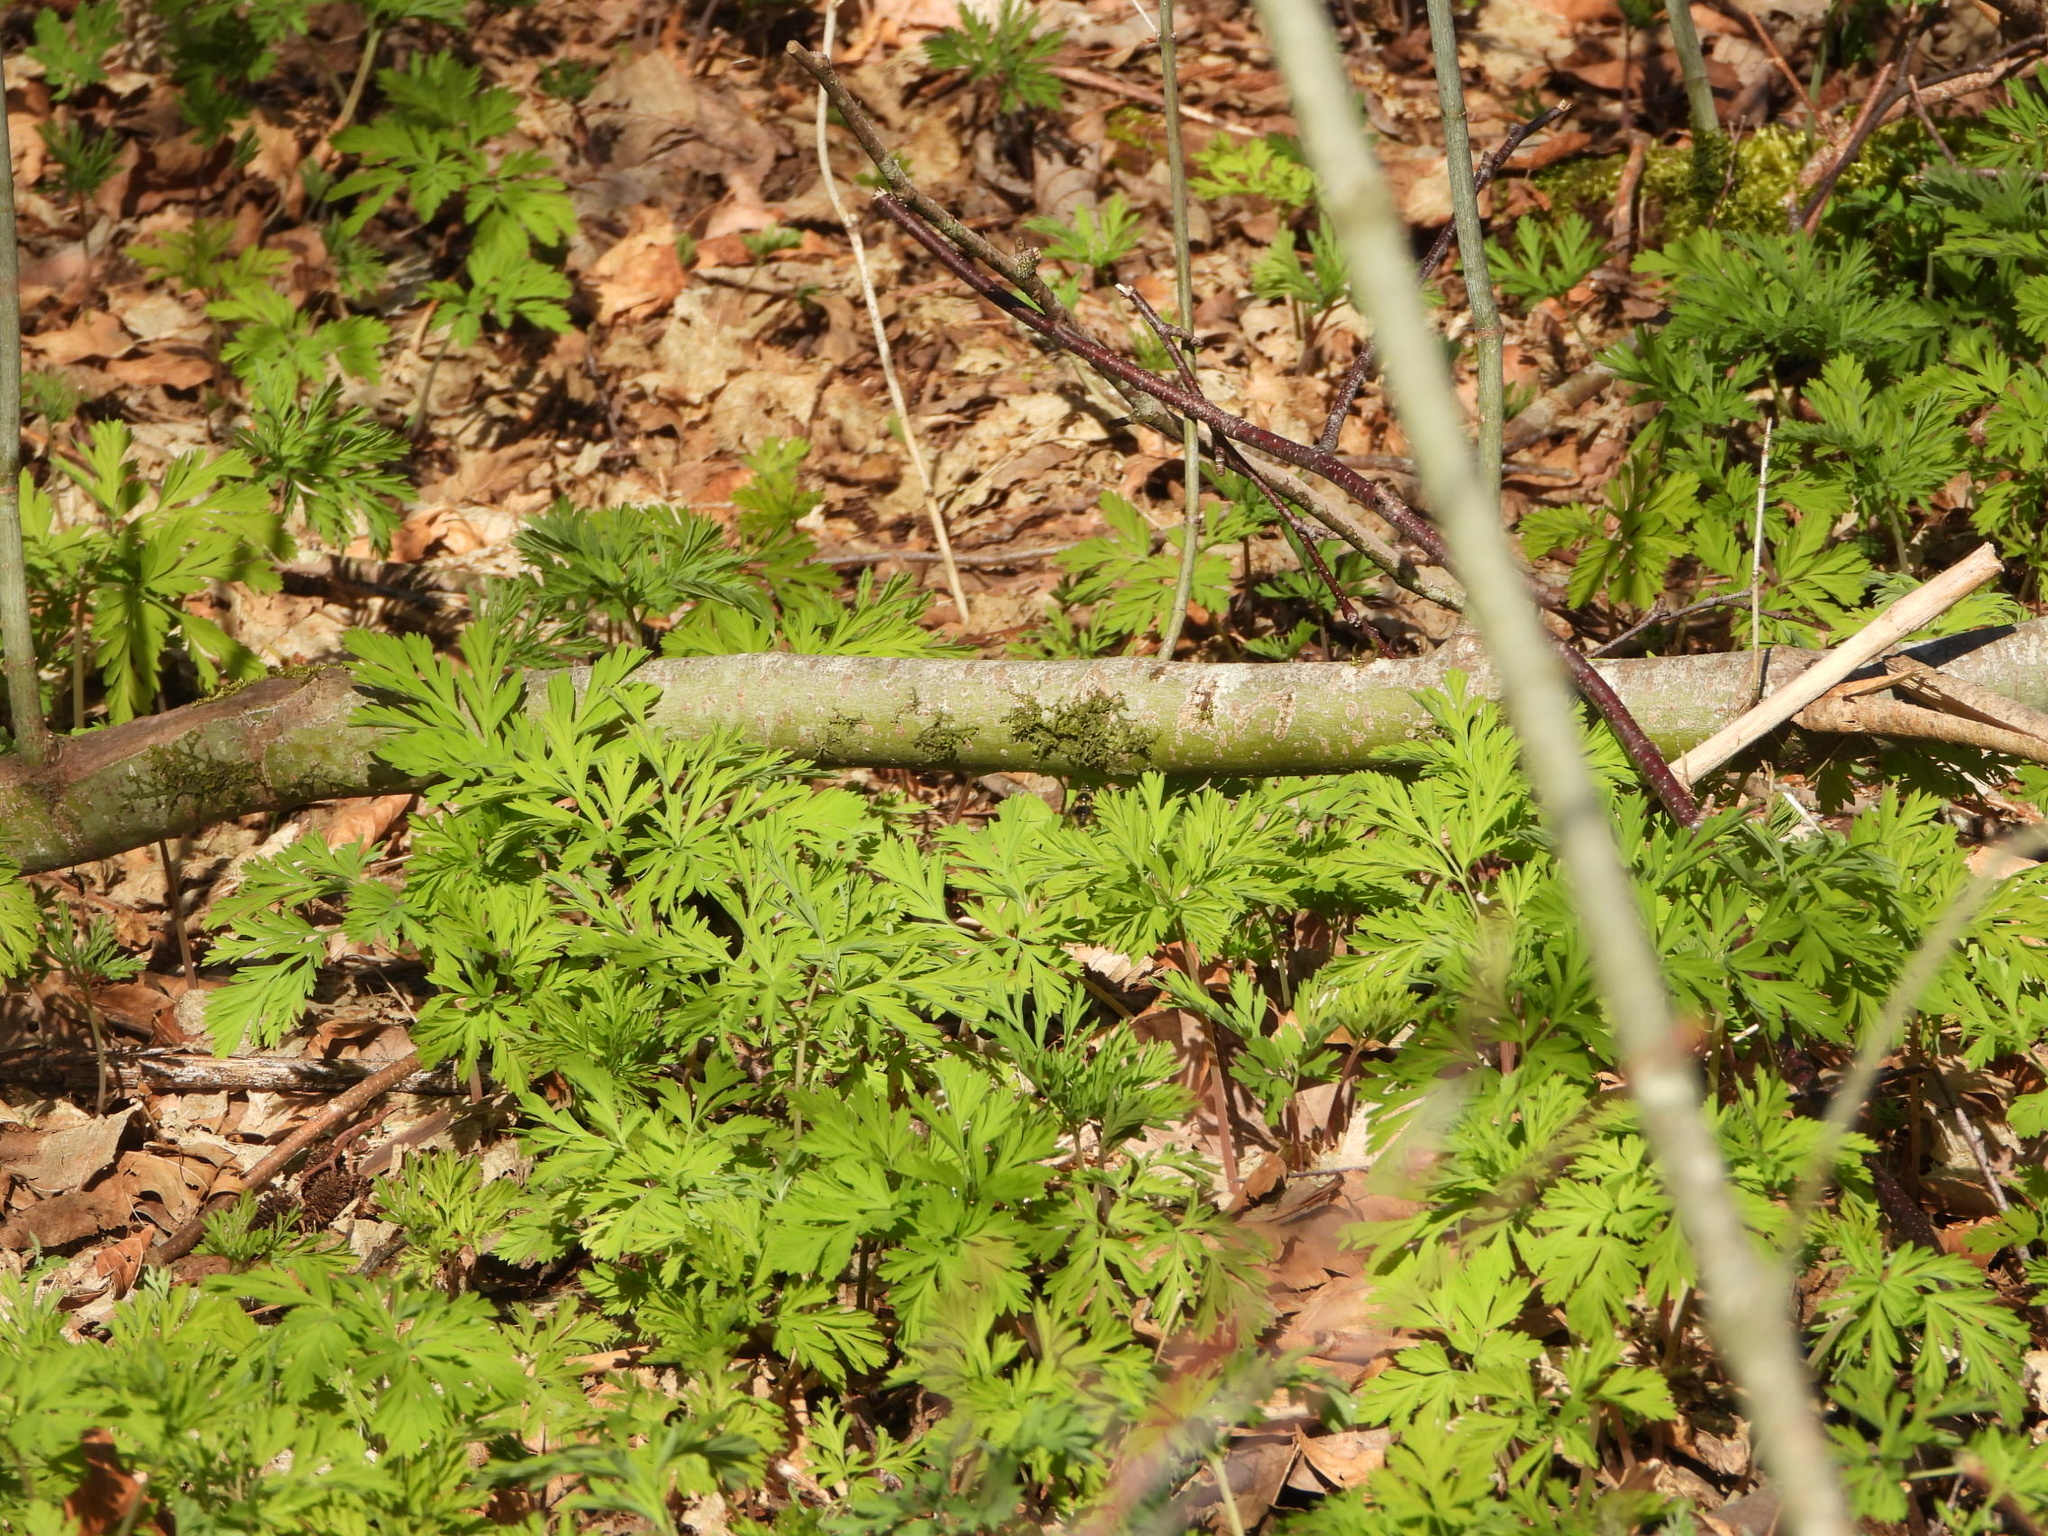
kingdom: Plantae
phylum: Tracheophyta
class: Magnoliopsida
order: Ranunculales
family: Papaveraceae
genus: Dicentra
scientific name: Dicentra formosa
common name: Bleeding-heart
